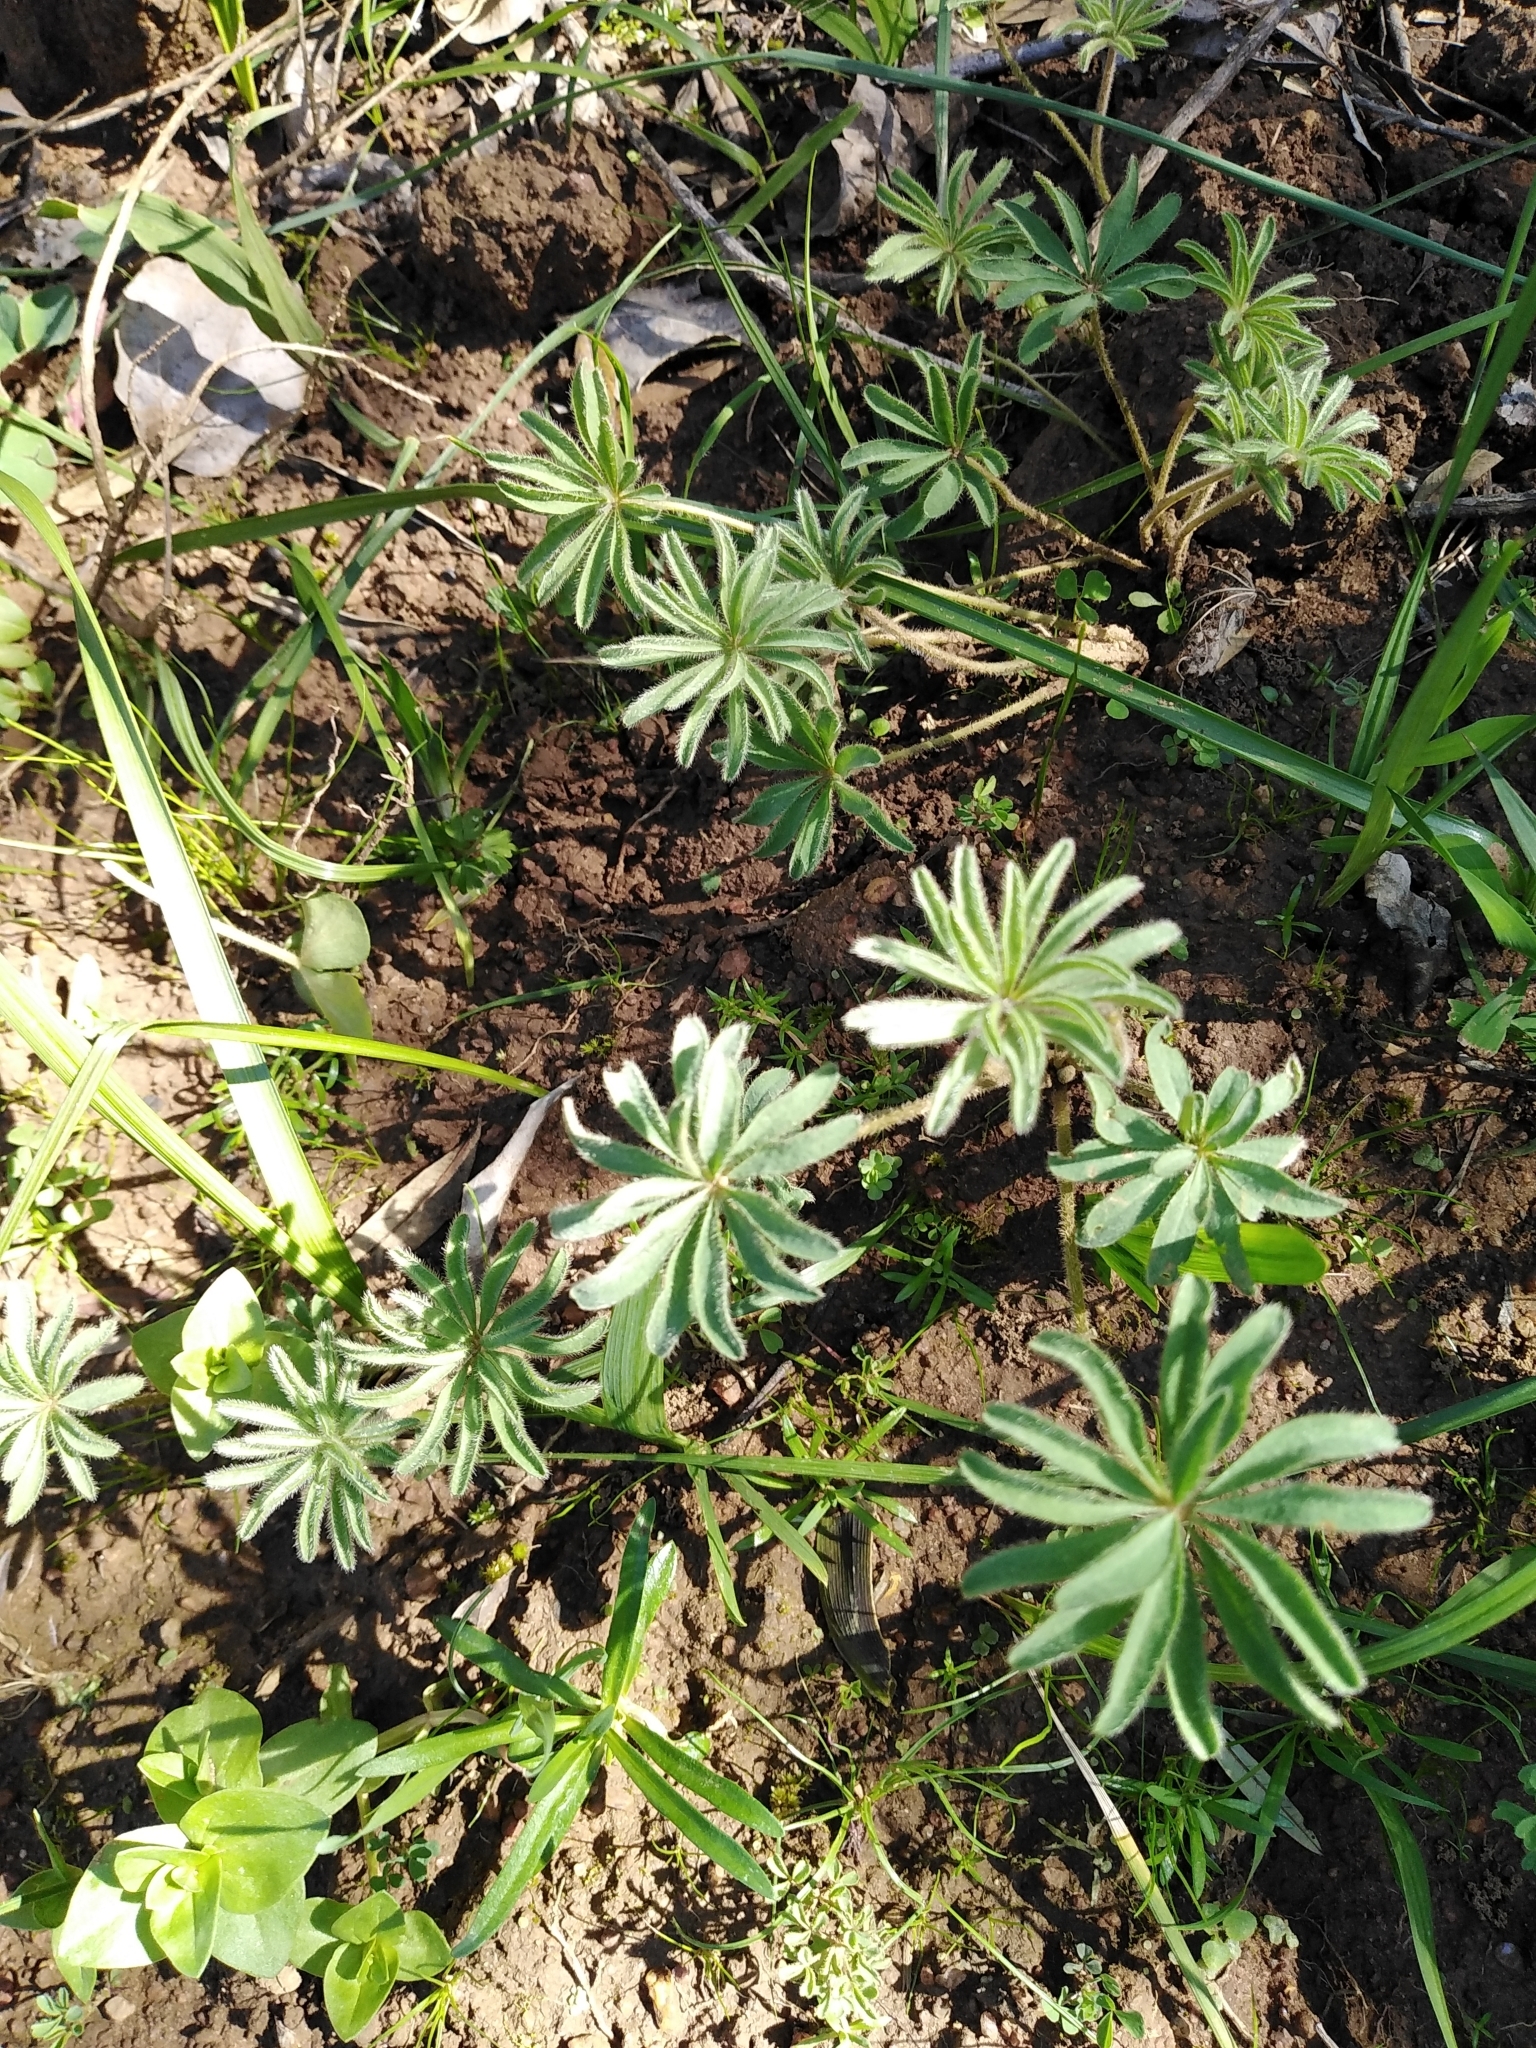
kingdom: Plantae
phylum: Tracheophyta
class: Magnoliopsida
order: Oxalidales
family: Oxalidaceae
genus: Oxalis
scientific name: Oxalis tomentosa
